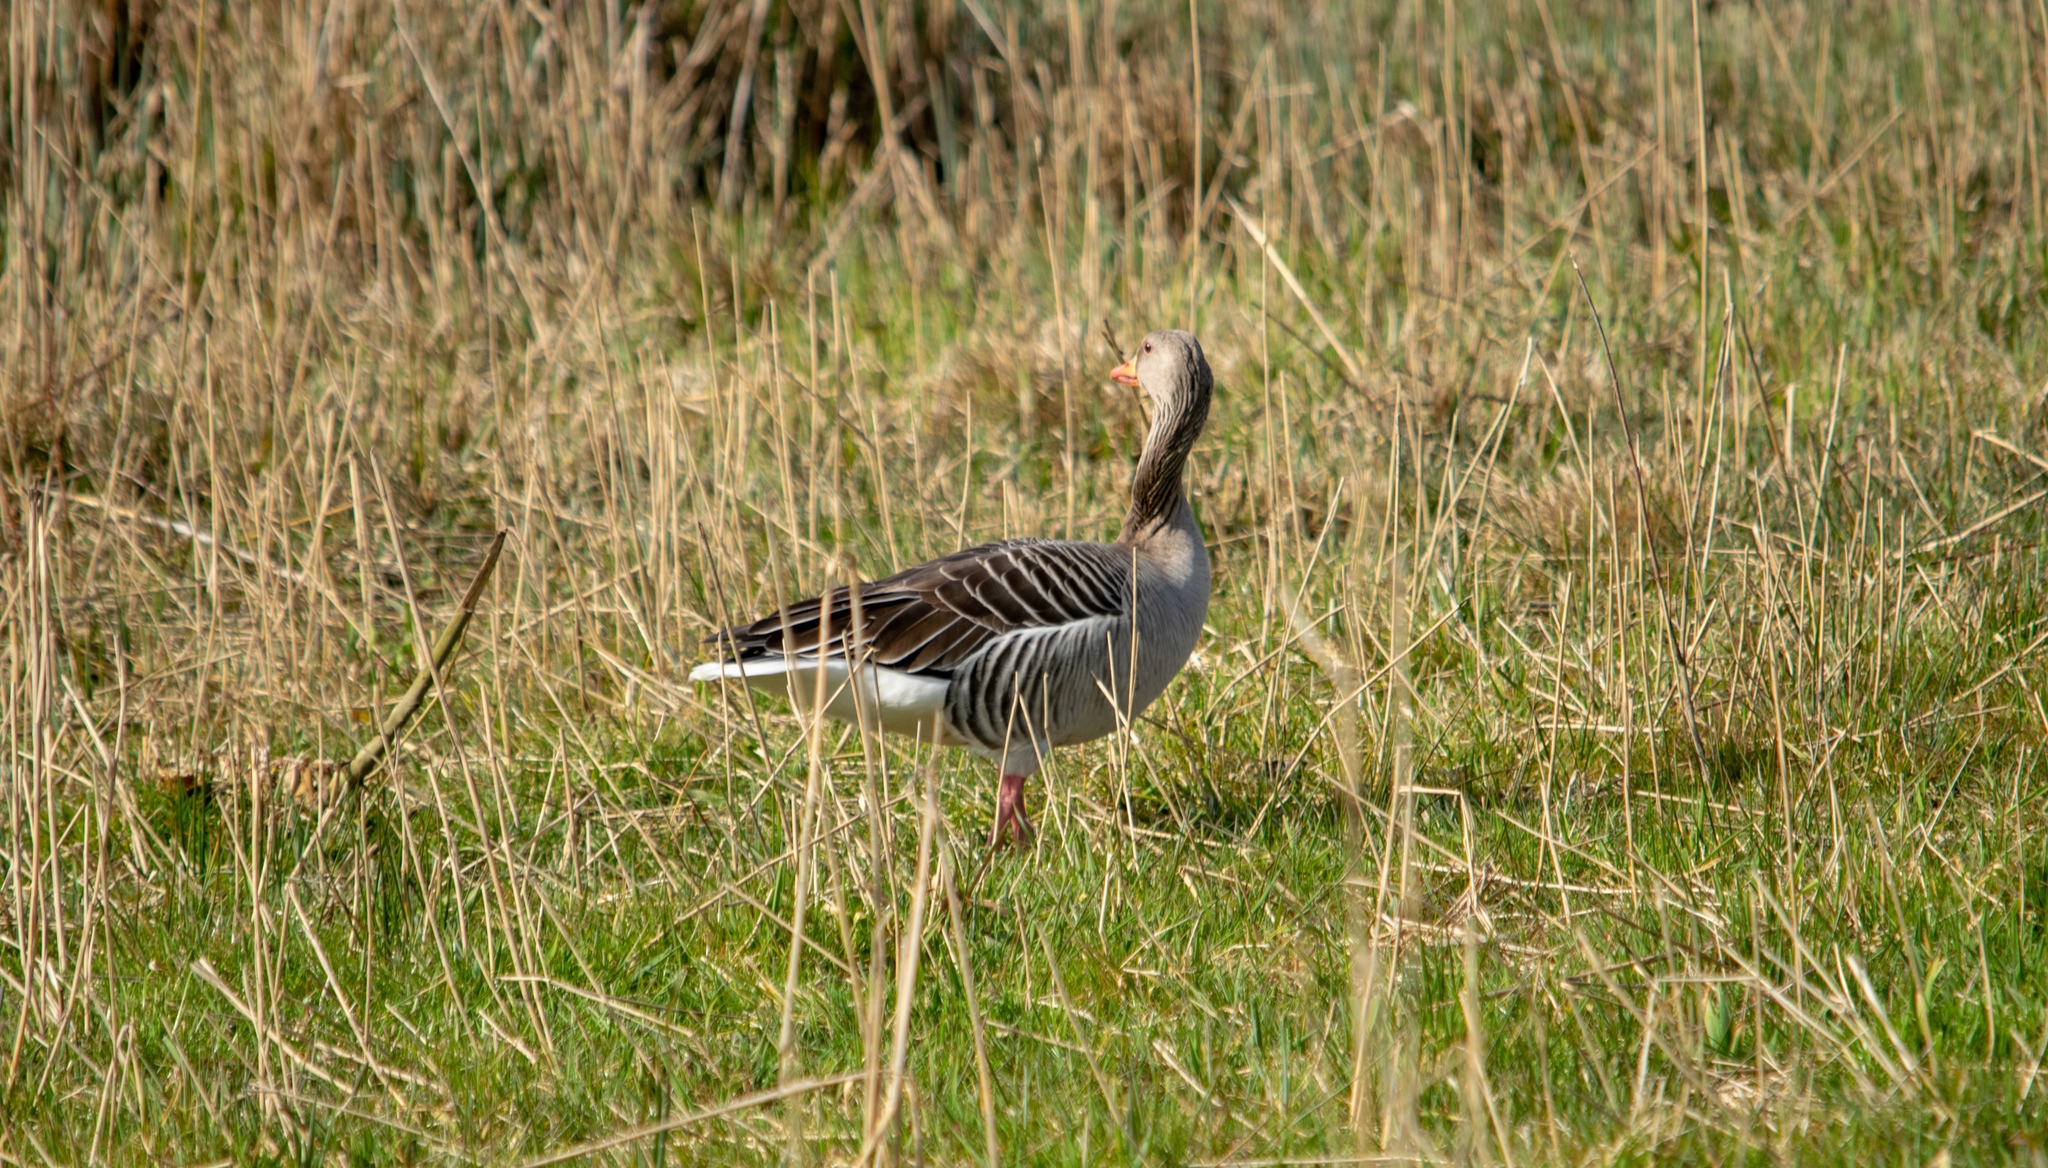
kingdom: Animalia
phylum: Chordata
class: Aves
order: Anseriformes
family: Anatidae
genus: Anser
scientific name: Anser anser
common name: Greylag goose
